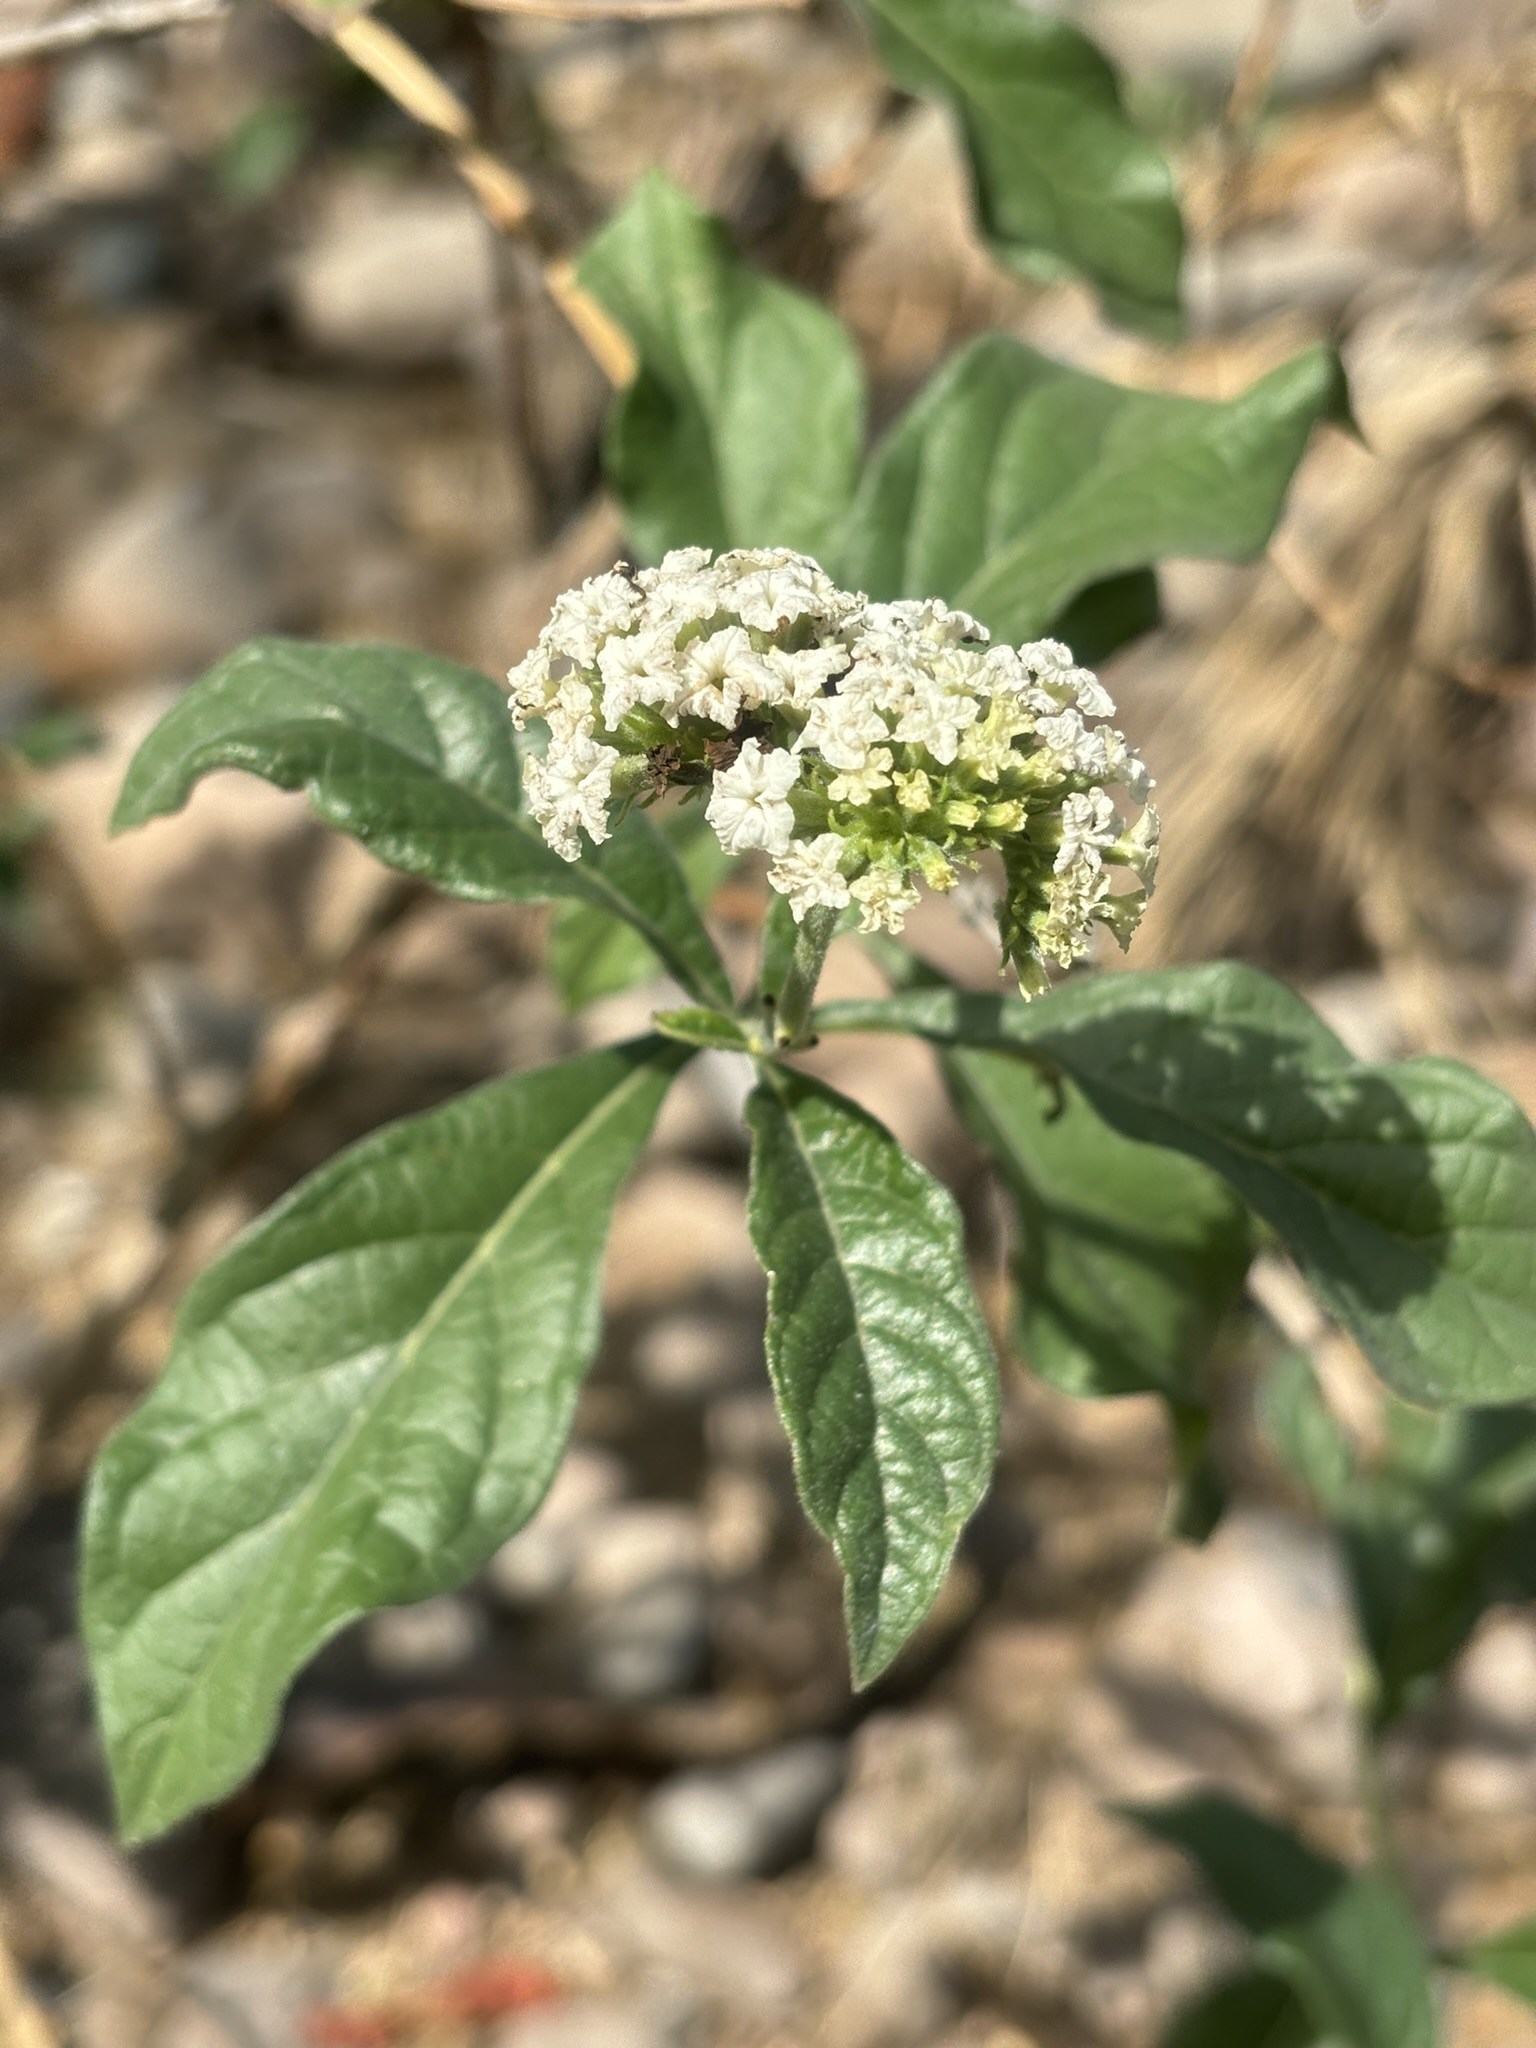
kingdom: Plantae
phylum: Tracheophyta
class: Magnoliopsida
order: Boraginales
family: Heliotropiaceae
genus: Tournefortia
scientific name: Tournefortia mutabilis
